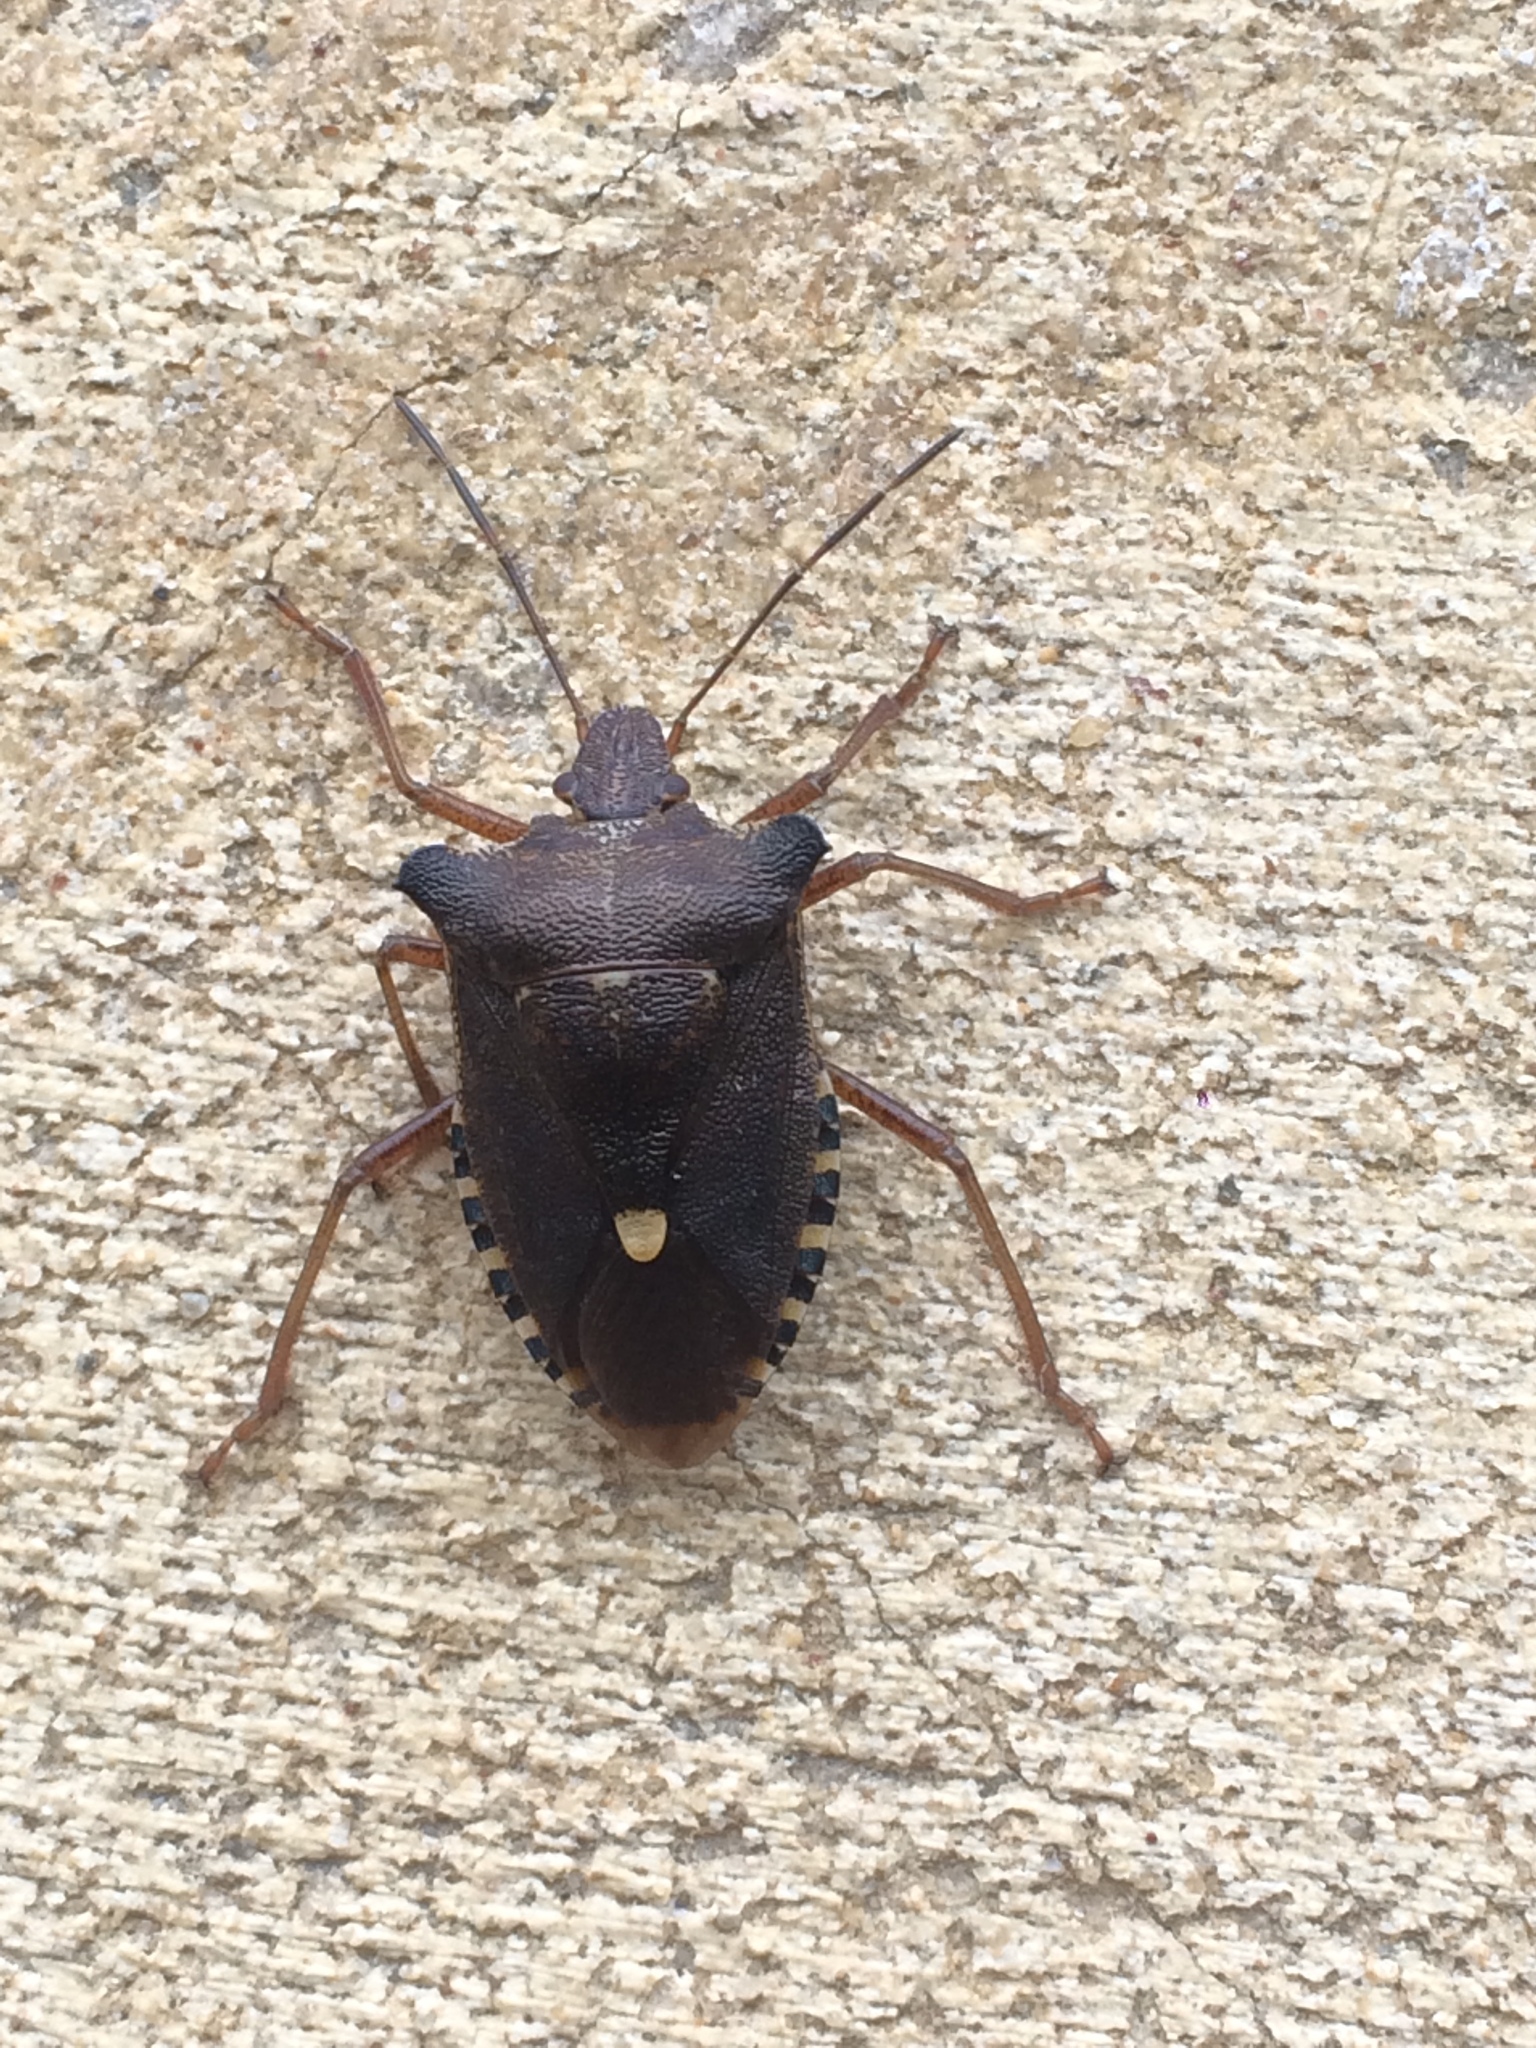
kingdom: Animalia
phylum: Arthropoda
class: Insecta
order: Hemiptera
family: Pentatomidae
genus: Pentatoma
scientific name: Pentatoma rufipes
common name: Forest bug
